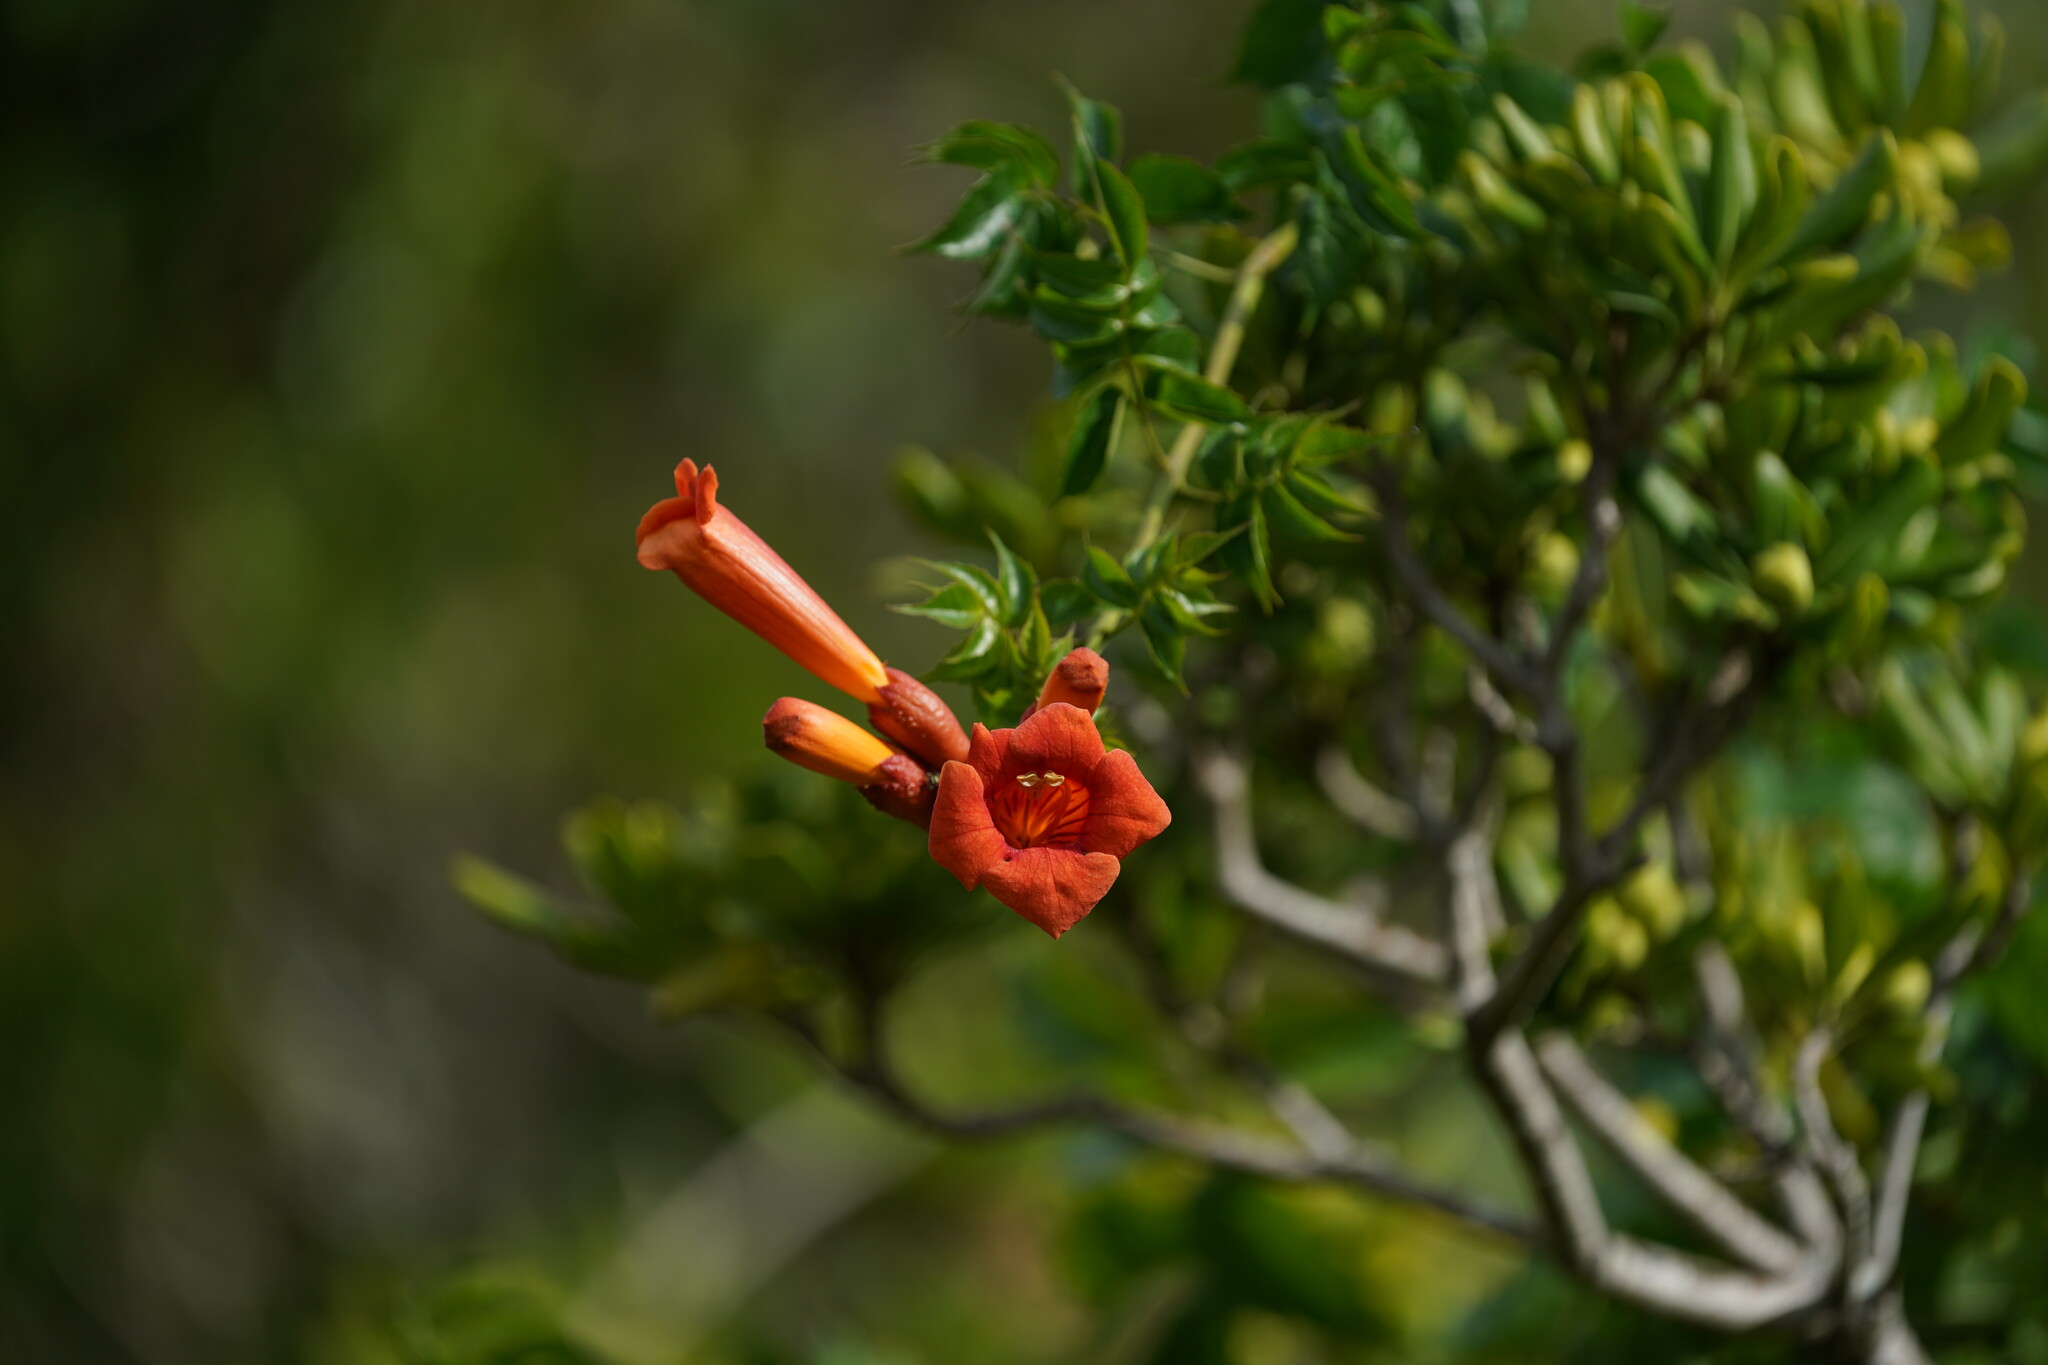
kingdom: Plantae
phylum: Tracheophyta
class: Magnoliopsida
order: Lamiales
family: Bignoniaceae
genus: Campsis
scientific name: Campsis radicans
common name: Trumpet-creeper
